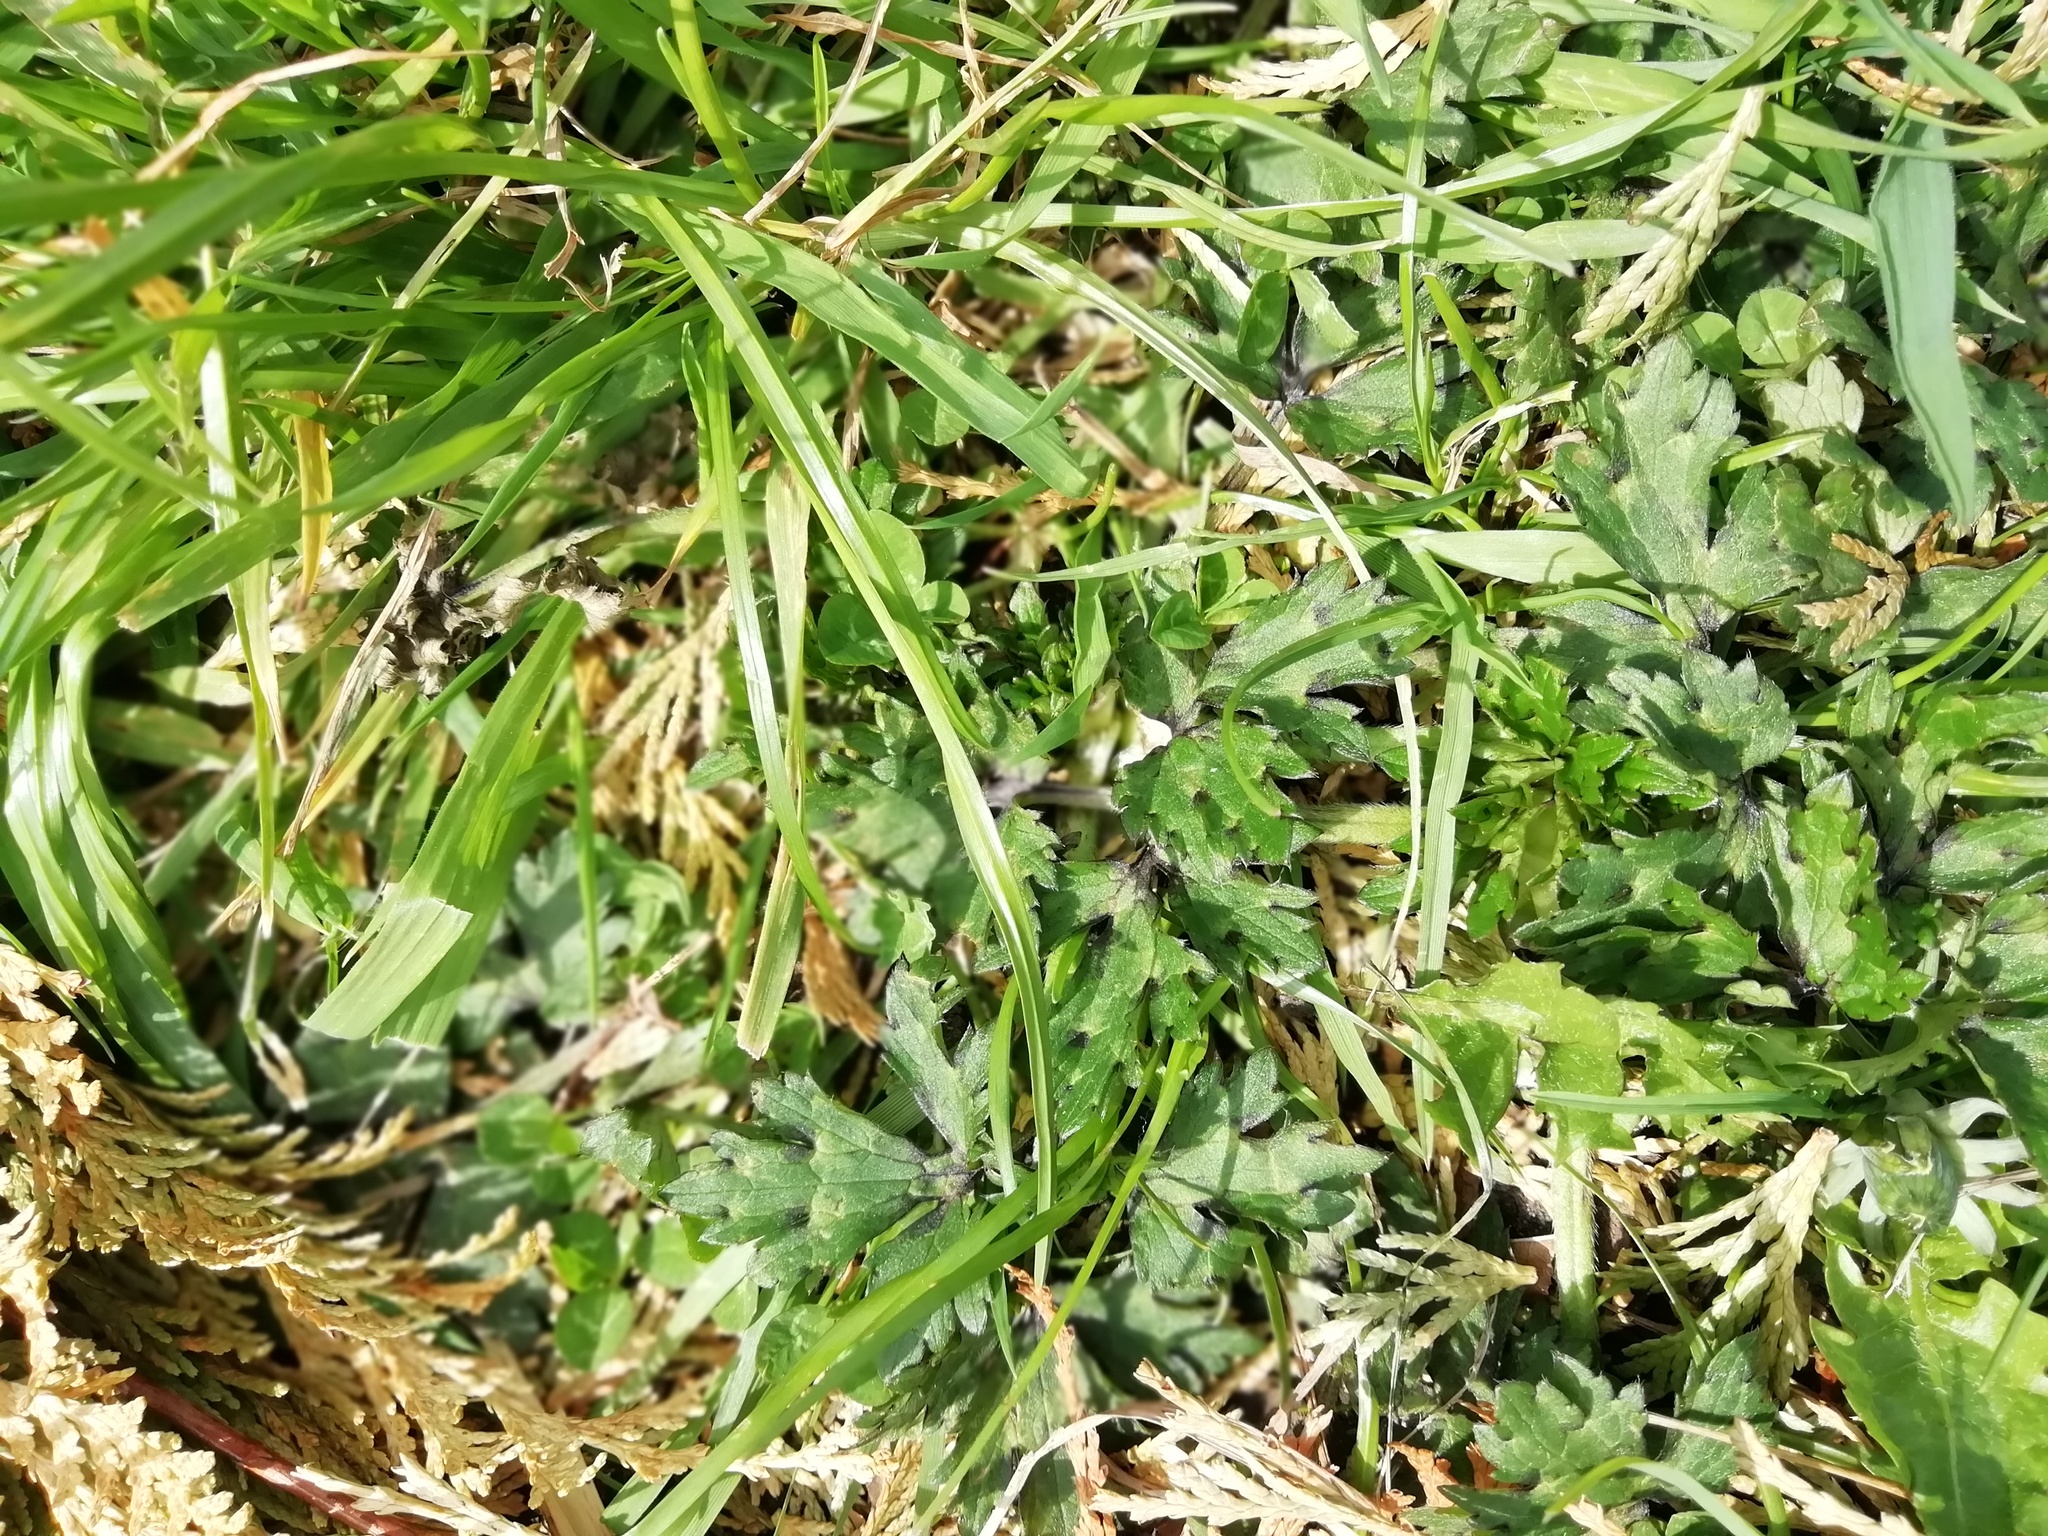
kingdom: Plantae
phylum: Tracheophyta
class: Magnoliopsida
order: Ranunculales
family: Ranunculaceae
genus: Ranunculus
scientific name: Ranunculus repens
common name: Creeping buttercup
